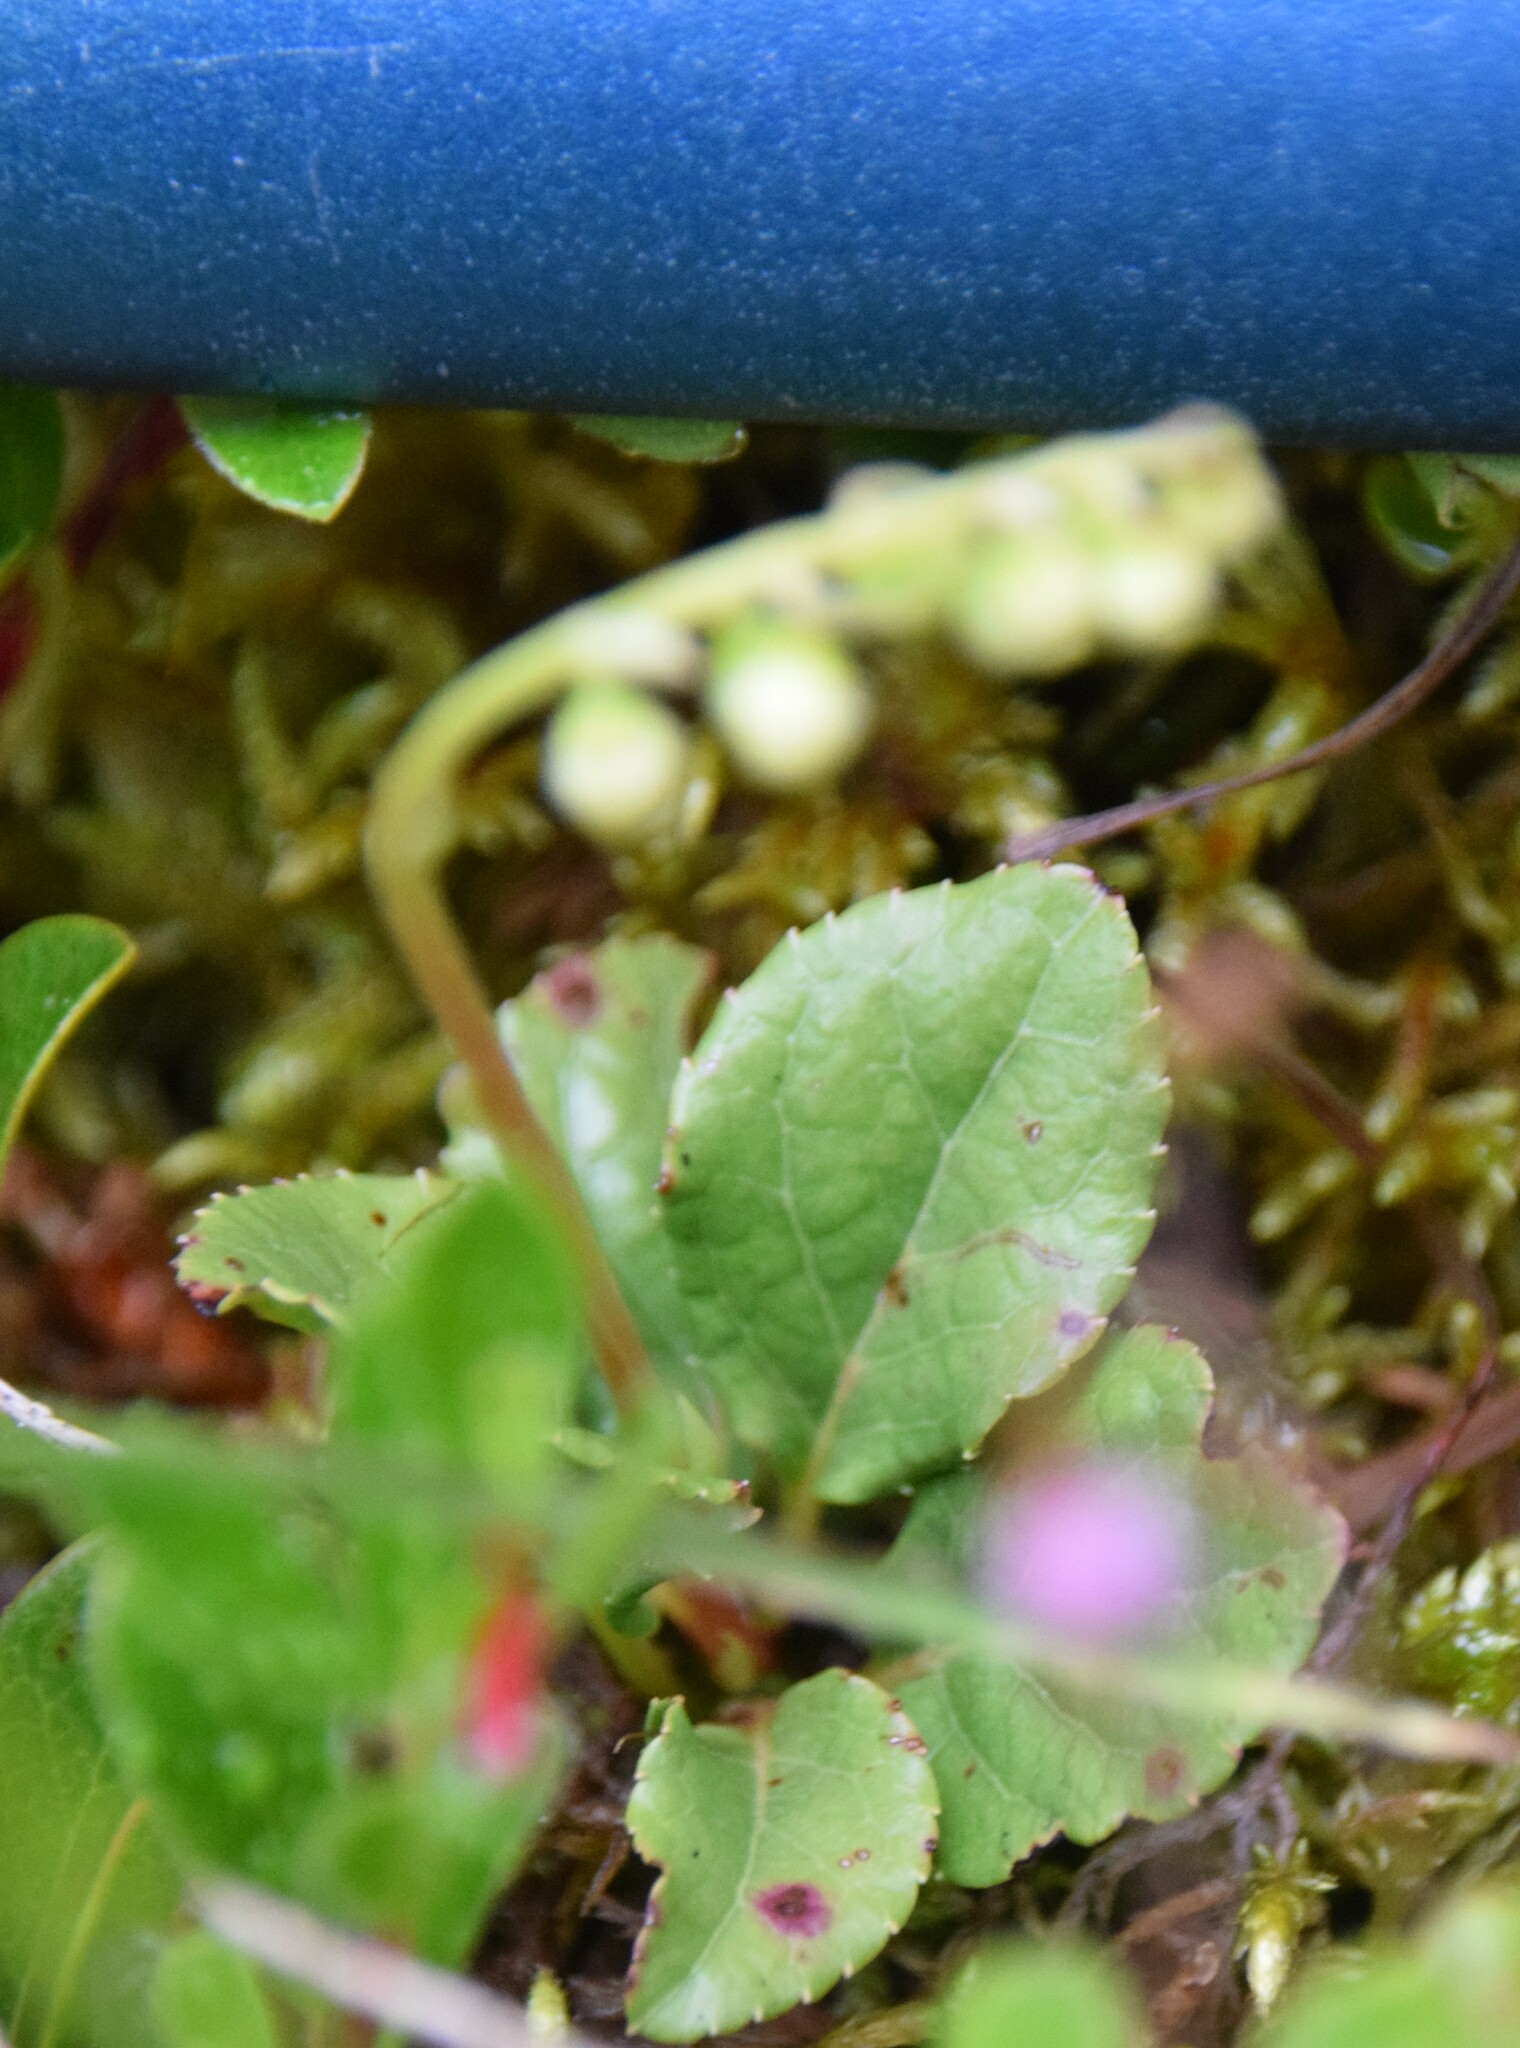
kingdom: Plantae
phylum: Tracheophyta
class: Magnoliopsida
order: Ericales
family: Ericaceae
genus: Orthilia
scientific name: Orthilia secunda
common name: One-sided orthilia
